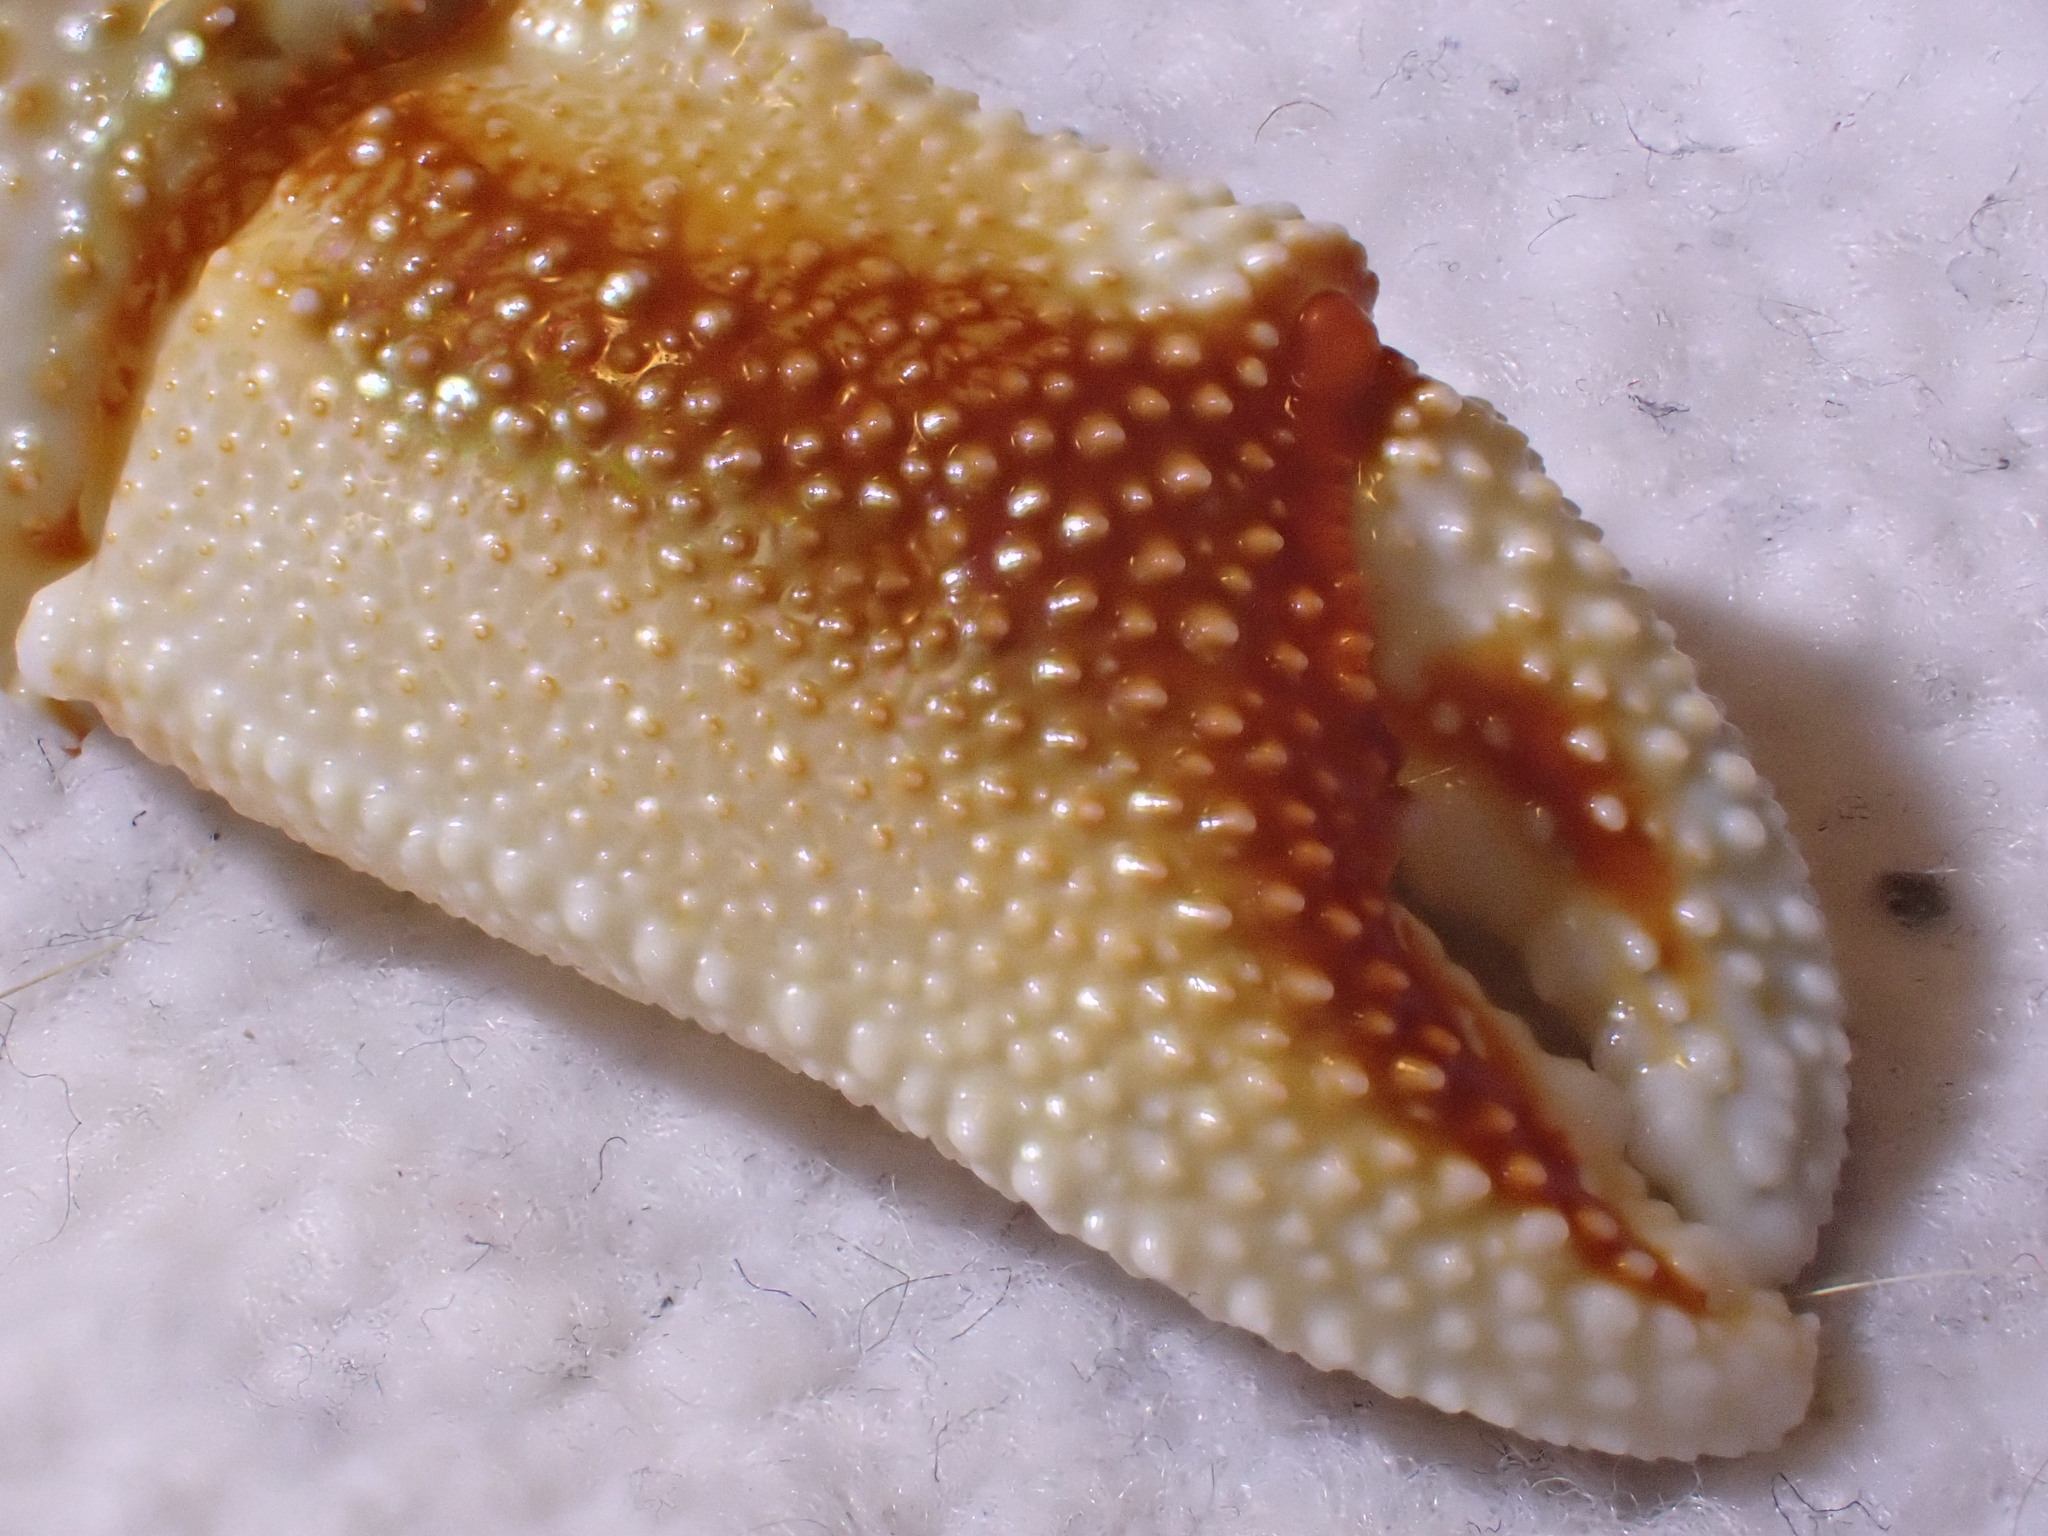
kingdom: Animalia
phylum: Arthropoda
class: Malacostraca
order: Decapoda
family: Paguridae
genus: Pagurus
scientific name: Pagurus bernhardus
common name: Hermit crab
